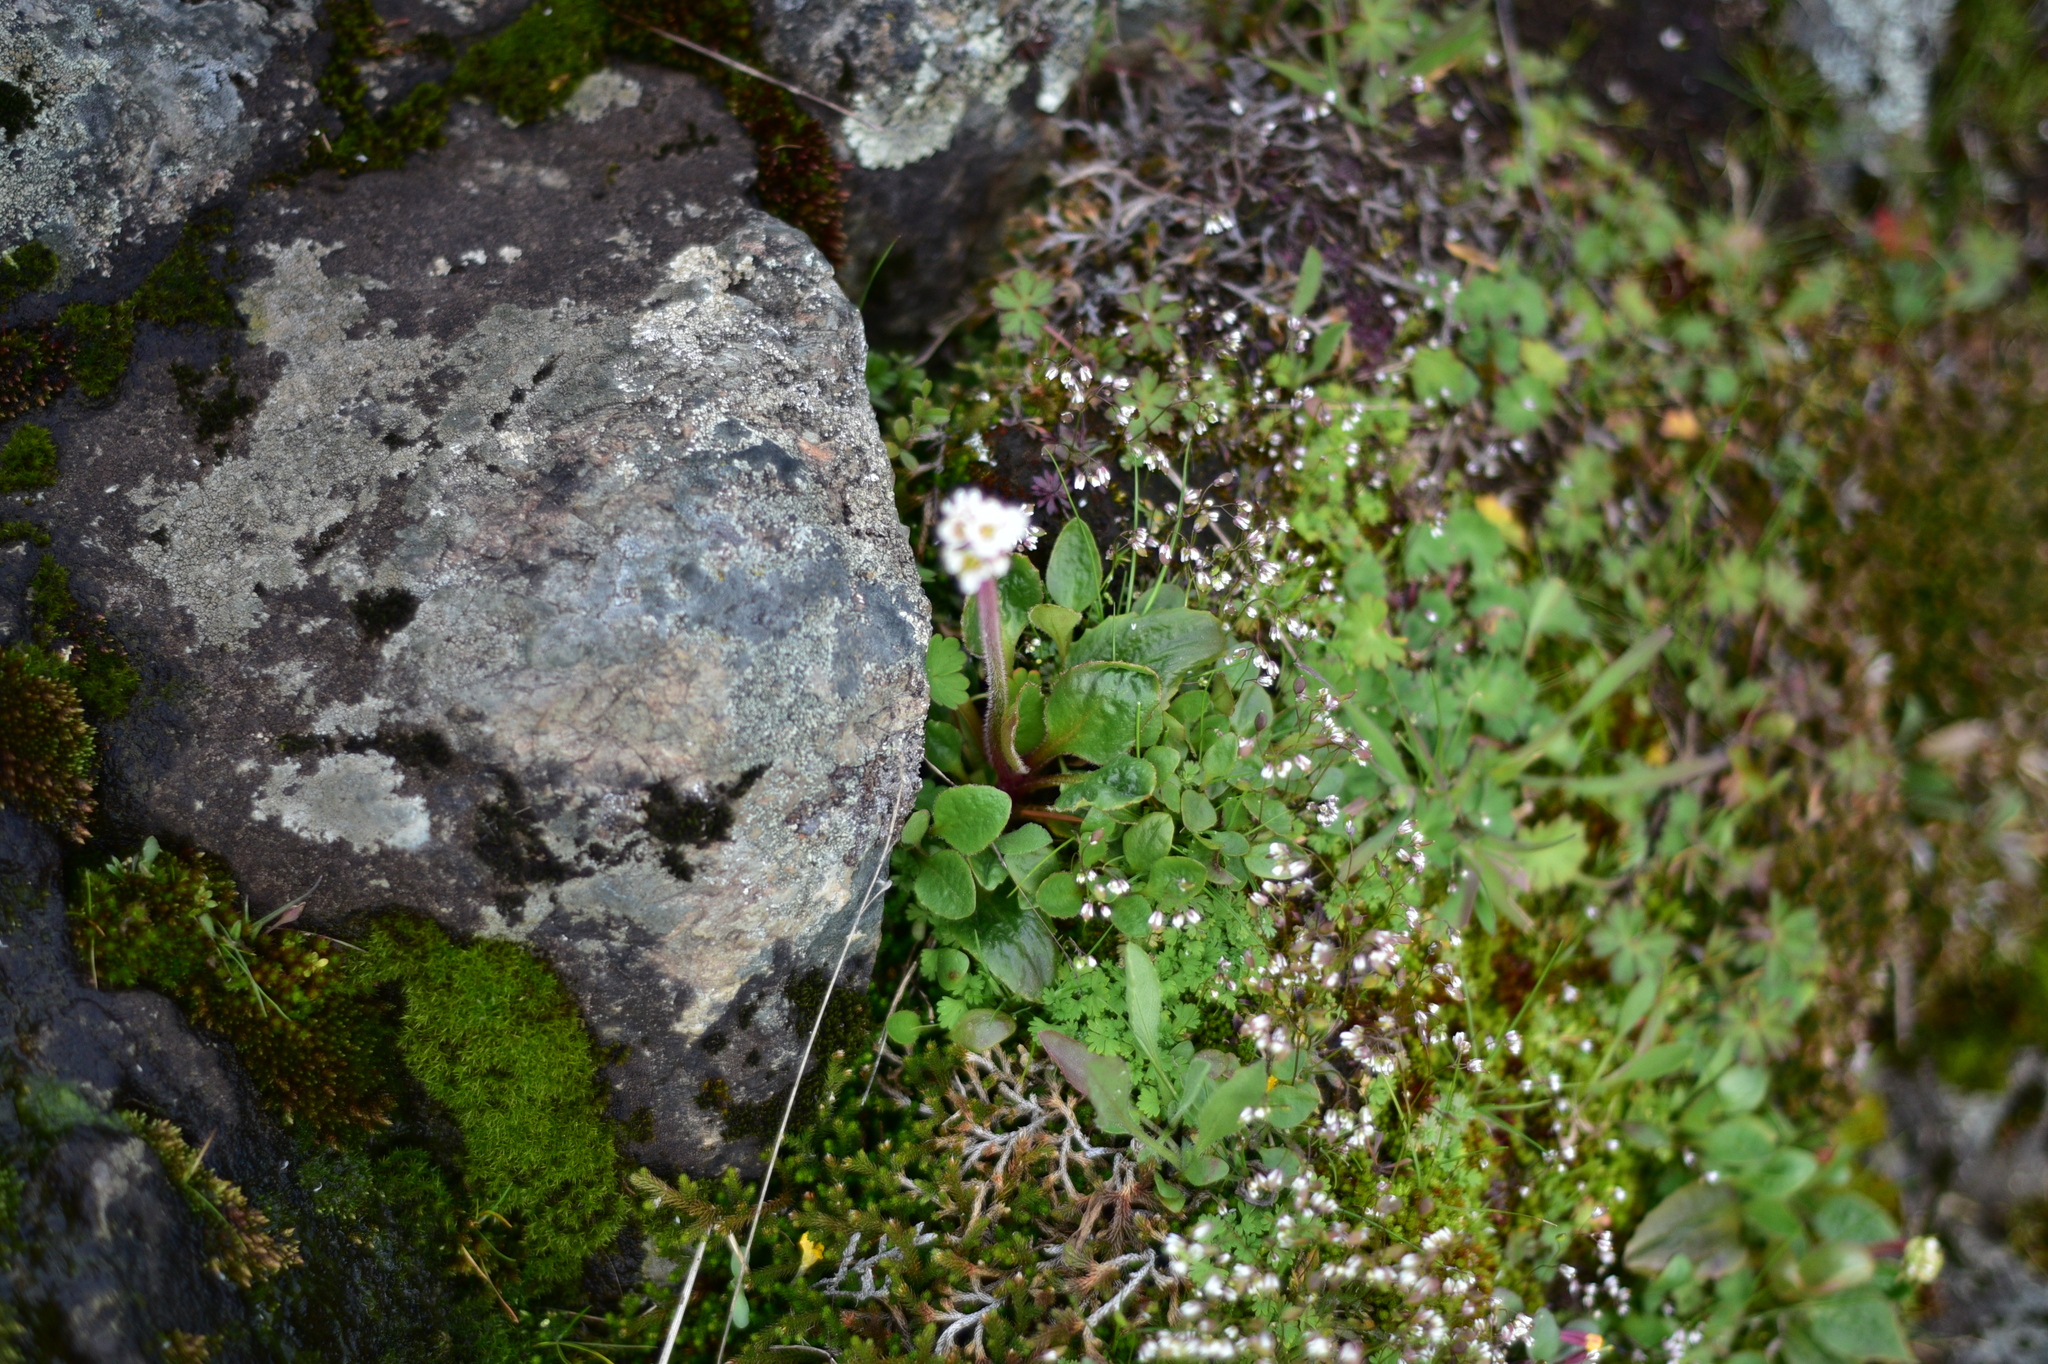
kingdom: Plantae
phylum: Tracheophyta
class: Magnoliopsida
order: Saxifragales
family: Saxifragaceae
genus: Micranthes
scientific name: Micranthes integrifolia
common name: Wholeleaf saxifrage
